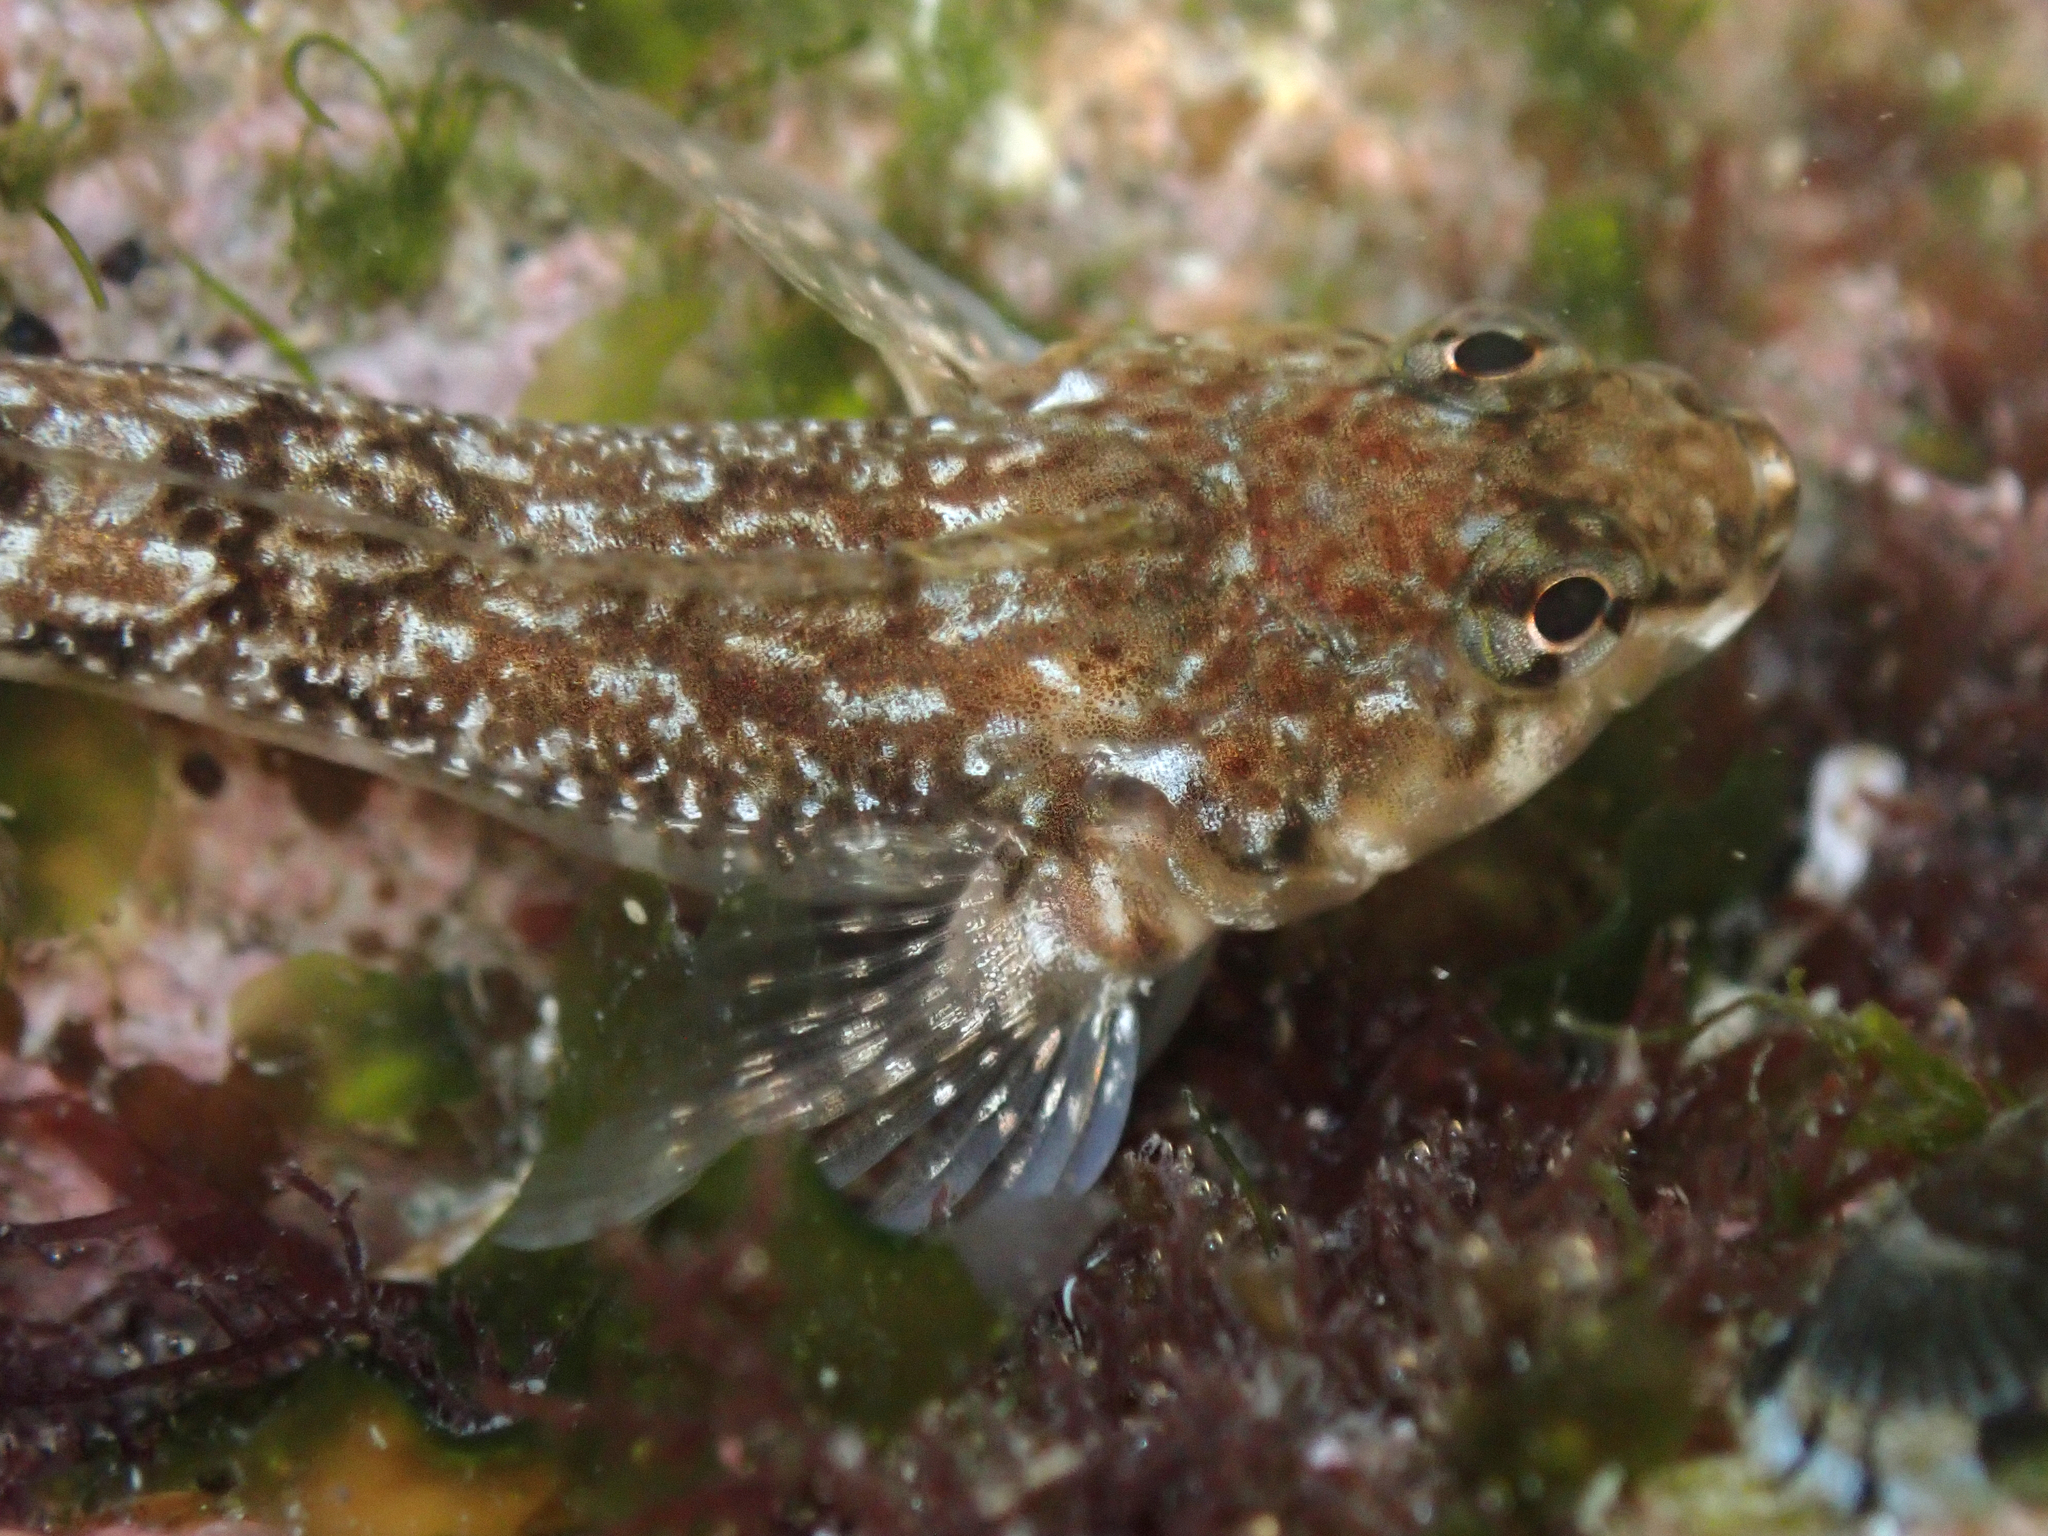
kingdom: Animalia
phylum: Chordata
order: Perciformes
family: Tripterygiidae
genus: Bellapiscis
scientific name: Bellapiscis medius
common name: Twister
